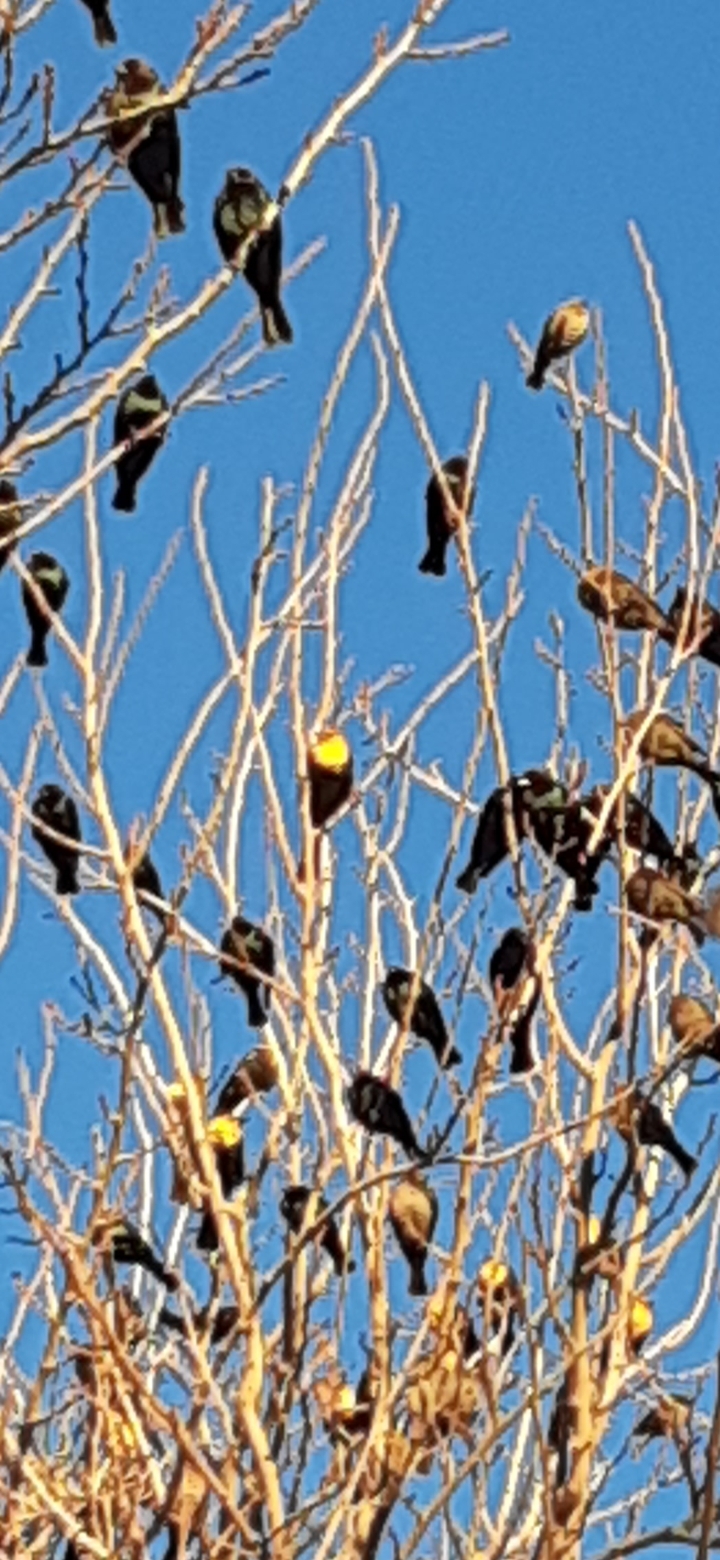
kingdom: Animalia
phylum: Chordata
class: Aves
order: Passeriformes
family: Icteridae
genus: Xanthocephalus
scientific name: Xanthocephalus xanthocephalus
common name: Yellow-headed blackbird
